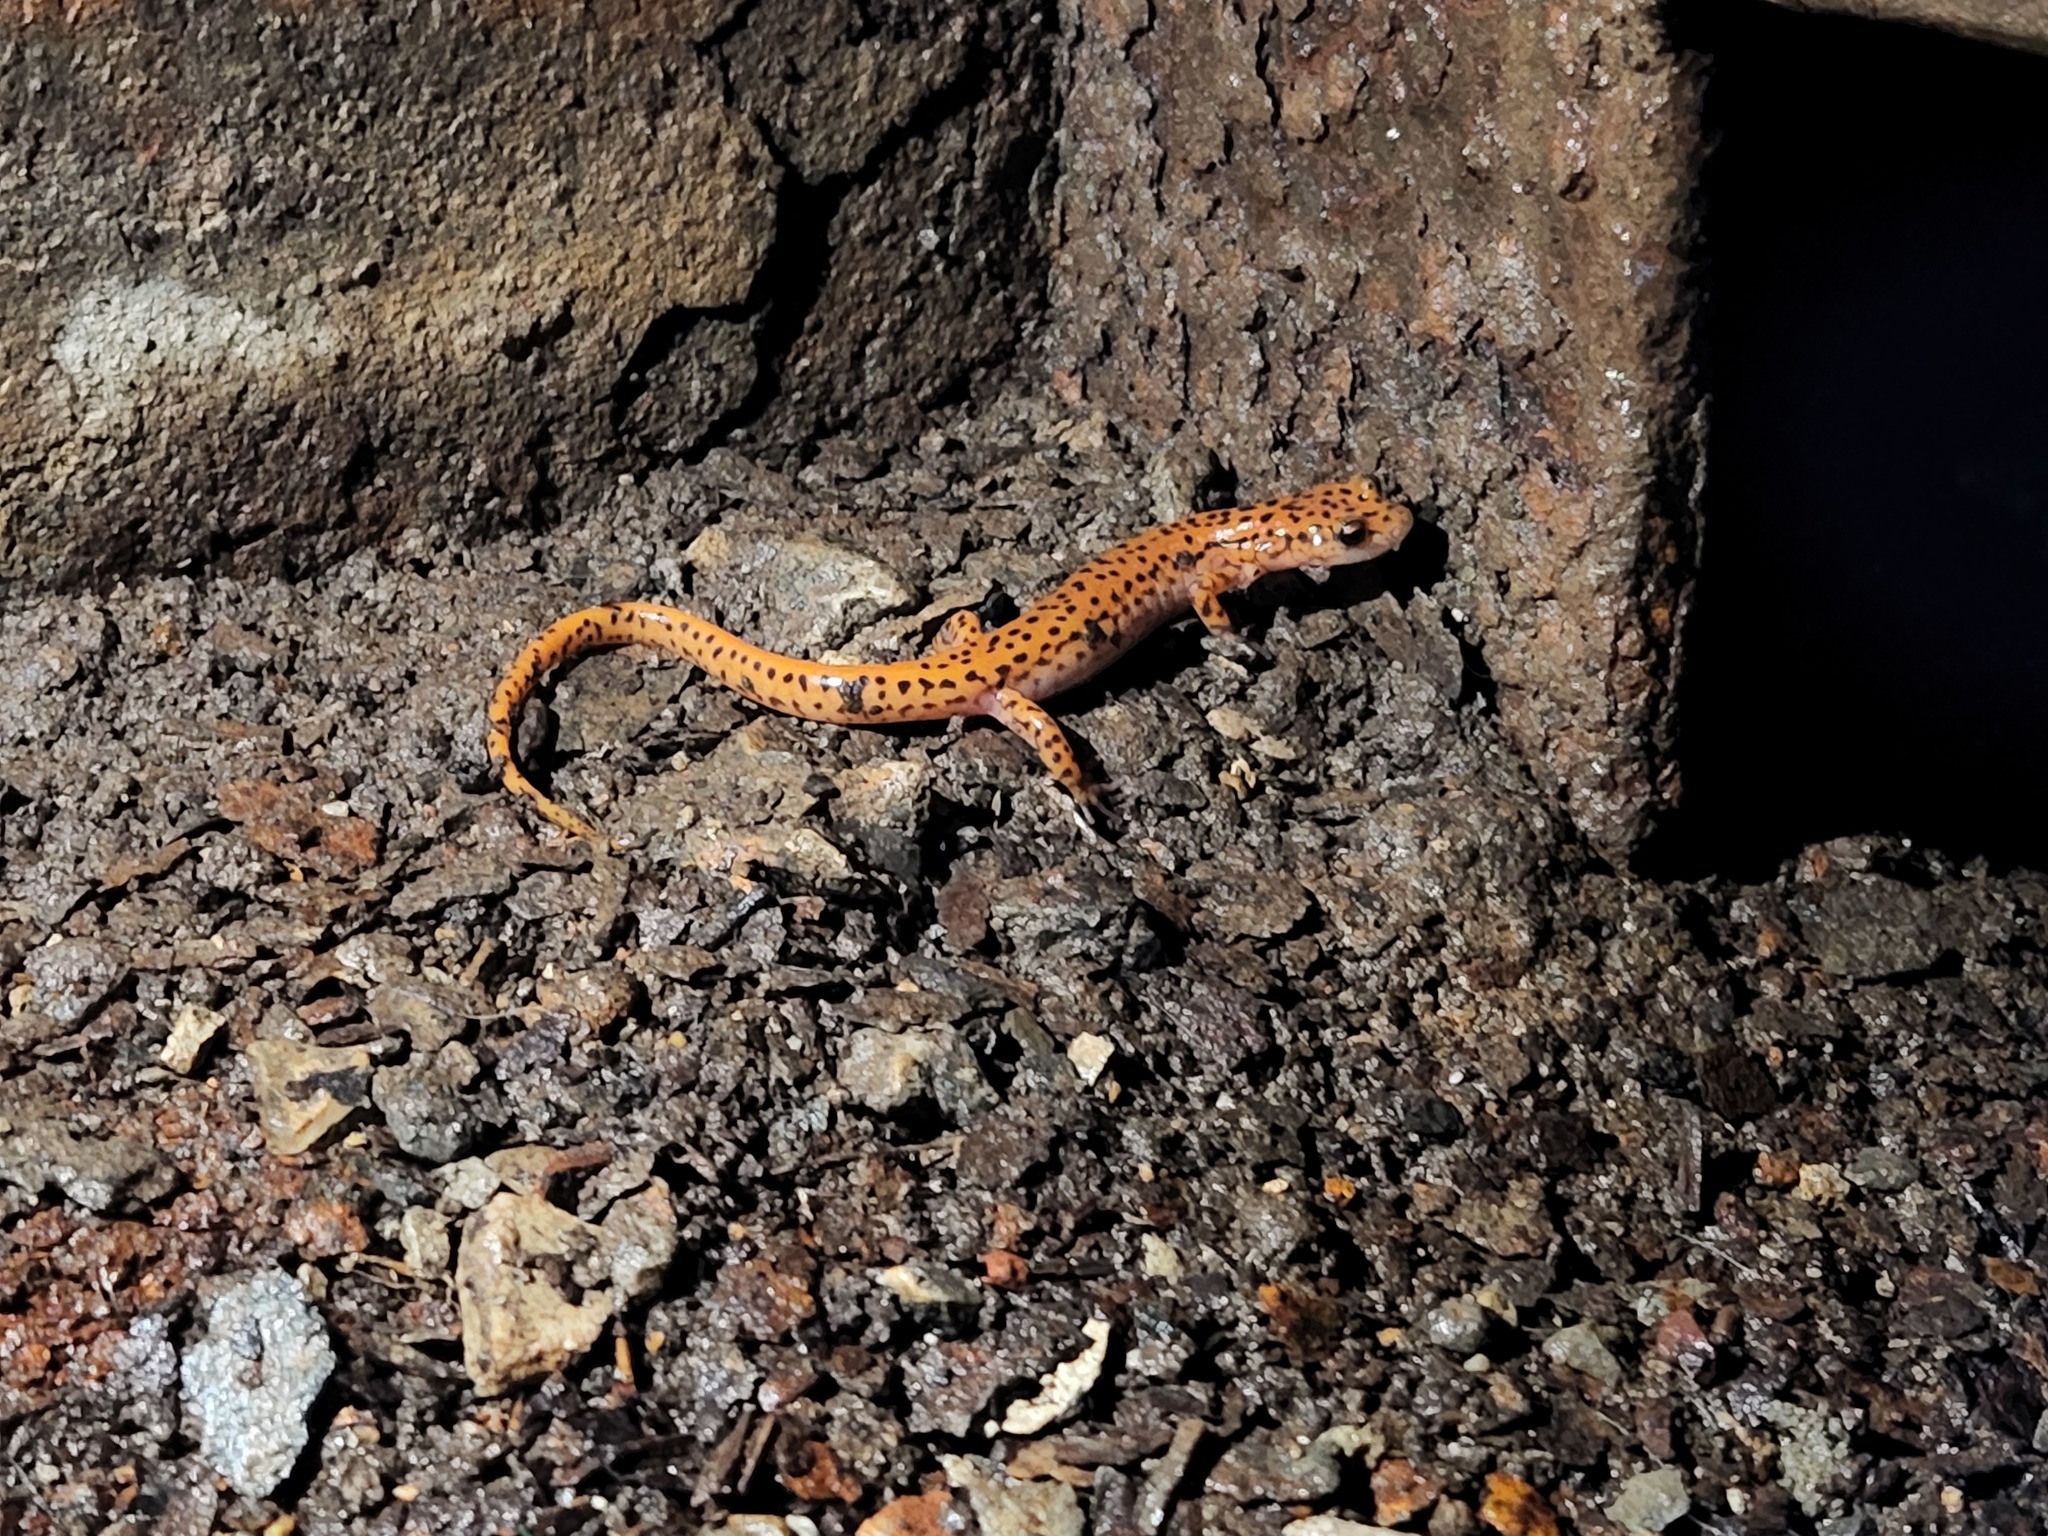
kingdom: Animalia
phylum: Chordata
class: Amphibia
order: Caudata
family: Plethodontidae
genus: Eurycea
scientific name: Eurycea lucifuga
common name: Cave salamander
